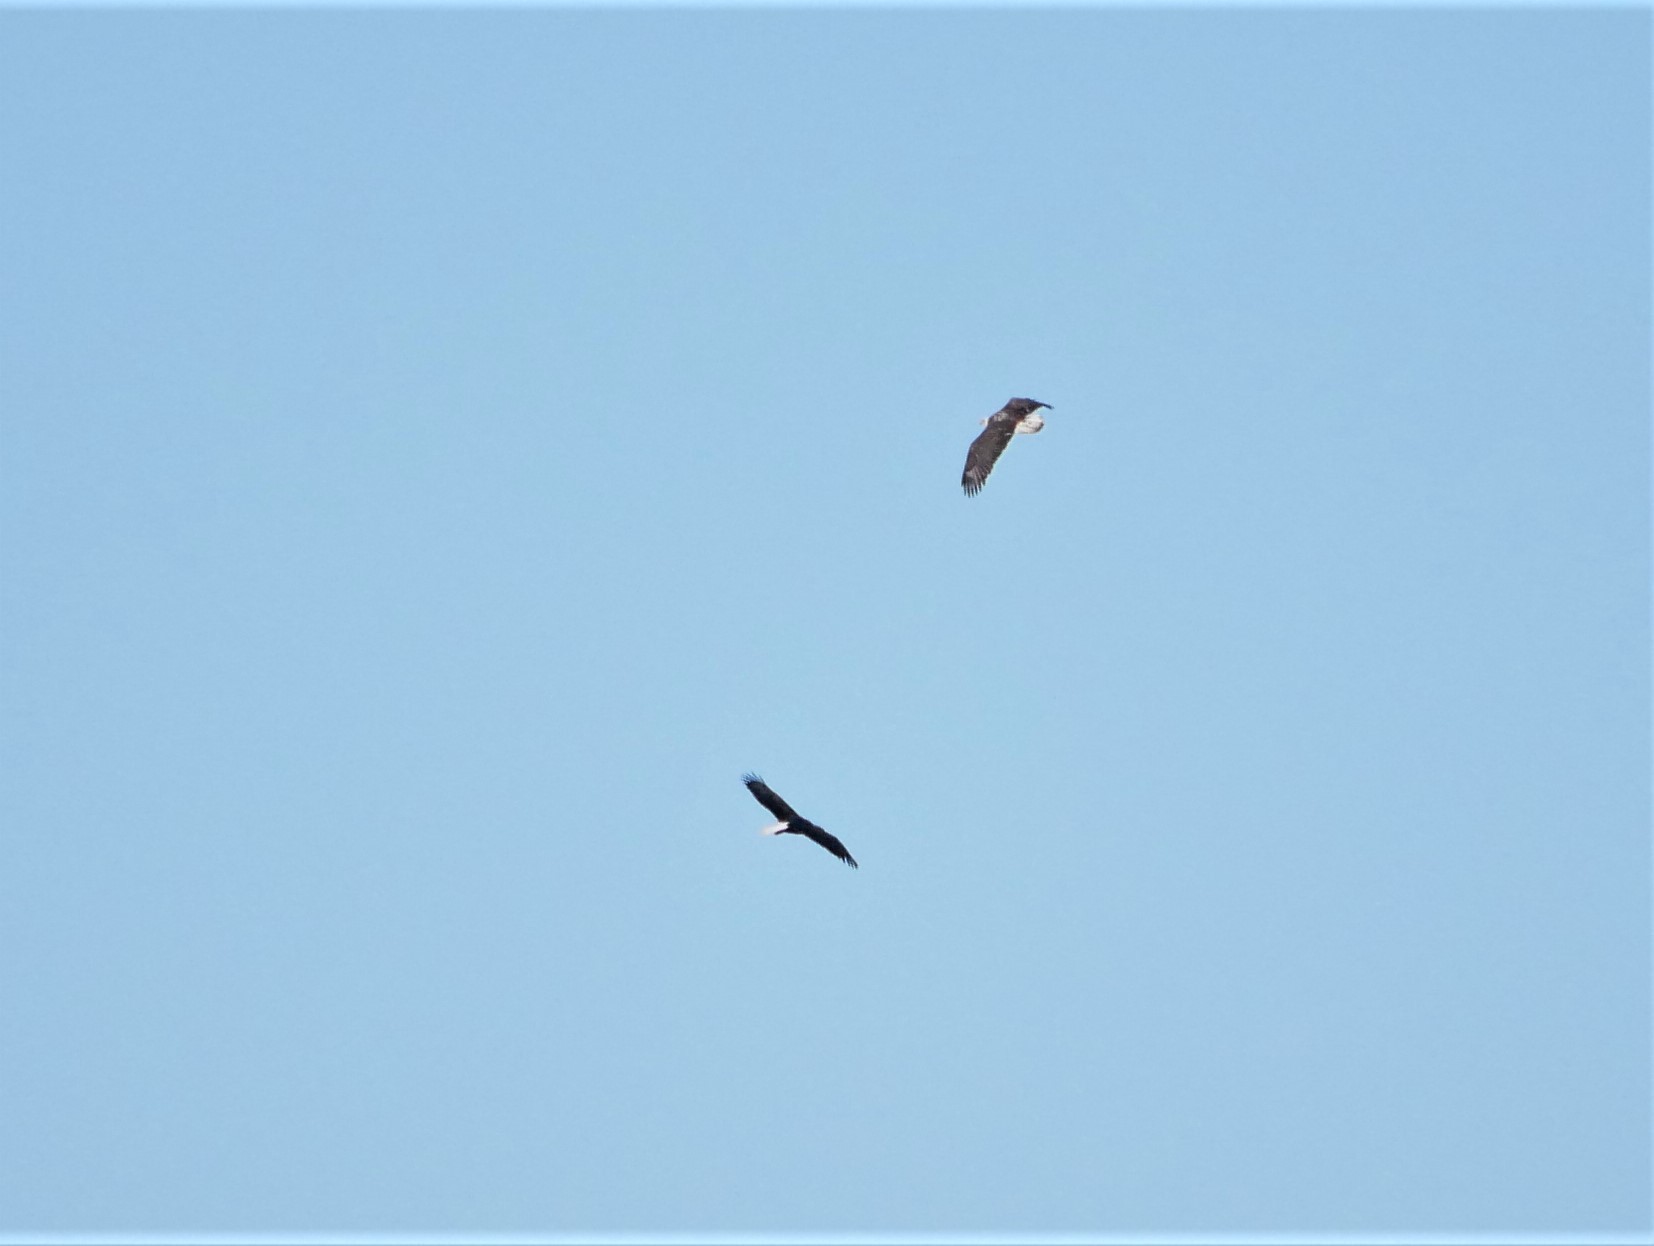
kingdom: Animalia
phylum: Chordata
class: Aves
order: Accipitriformes
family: Accipitridae
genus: Haliaeetus
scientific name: Haliaeetus leucocephalus
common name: Bald eagle
